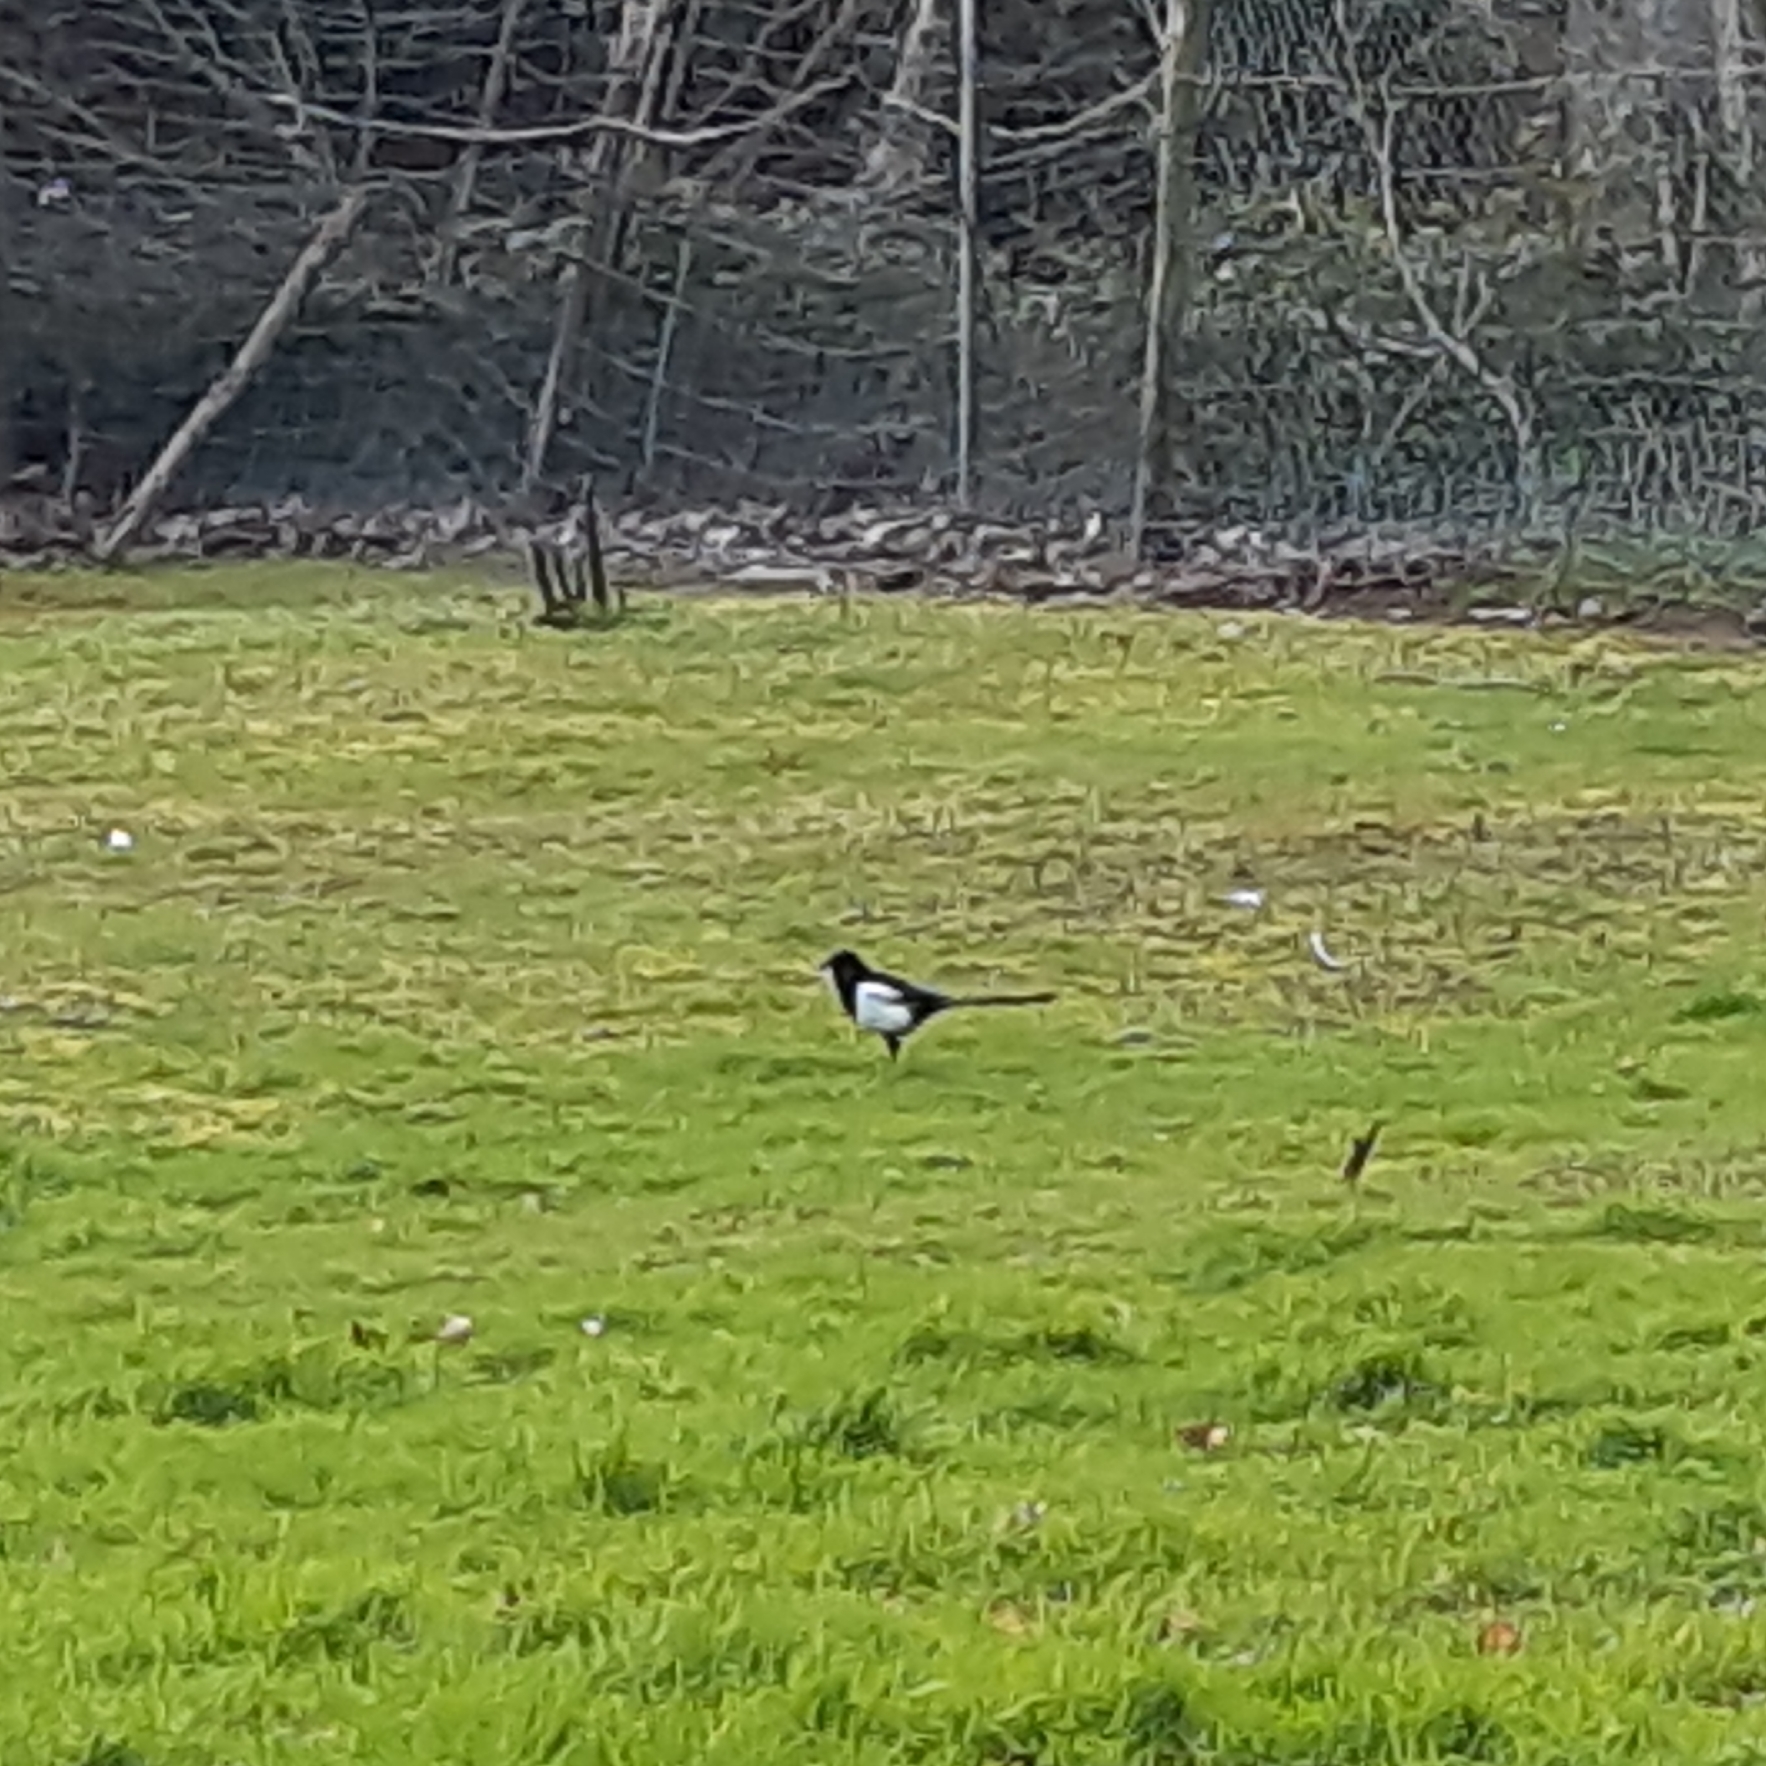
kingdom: Animalia
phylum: Chordata
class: Aves
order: Passeriformes
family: Corvidae
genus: Pica
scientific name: Pica pica
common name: Eurasian magpie
